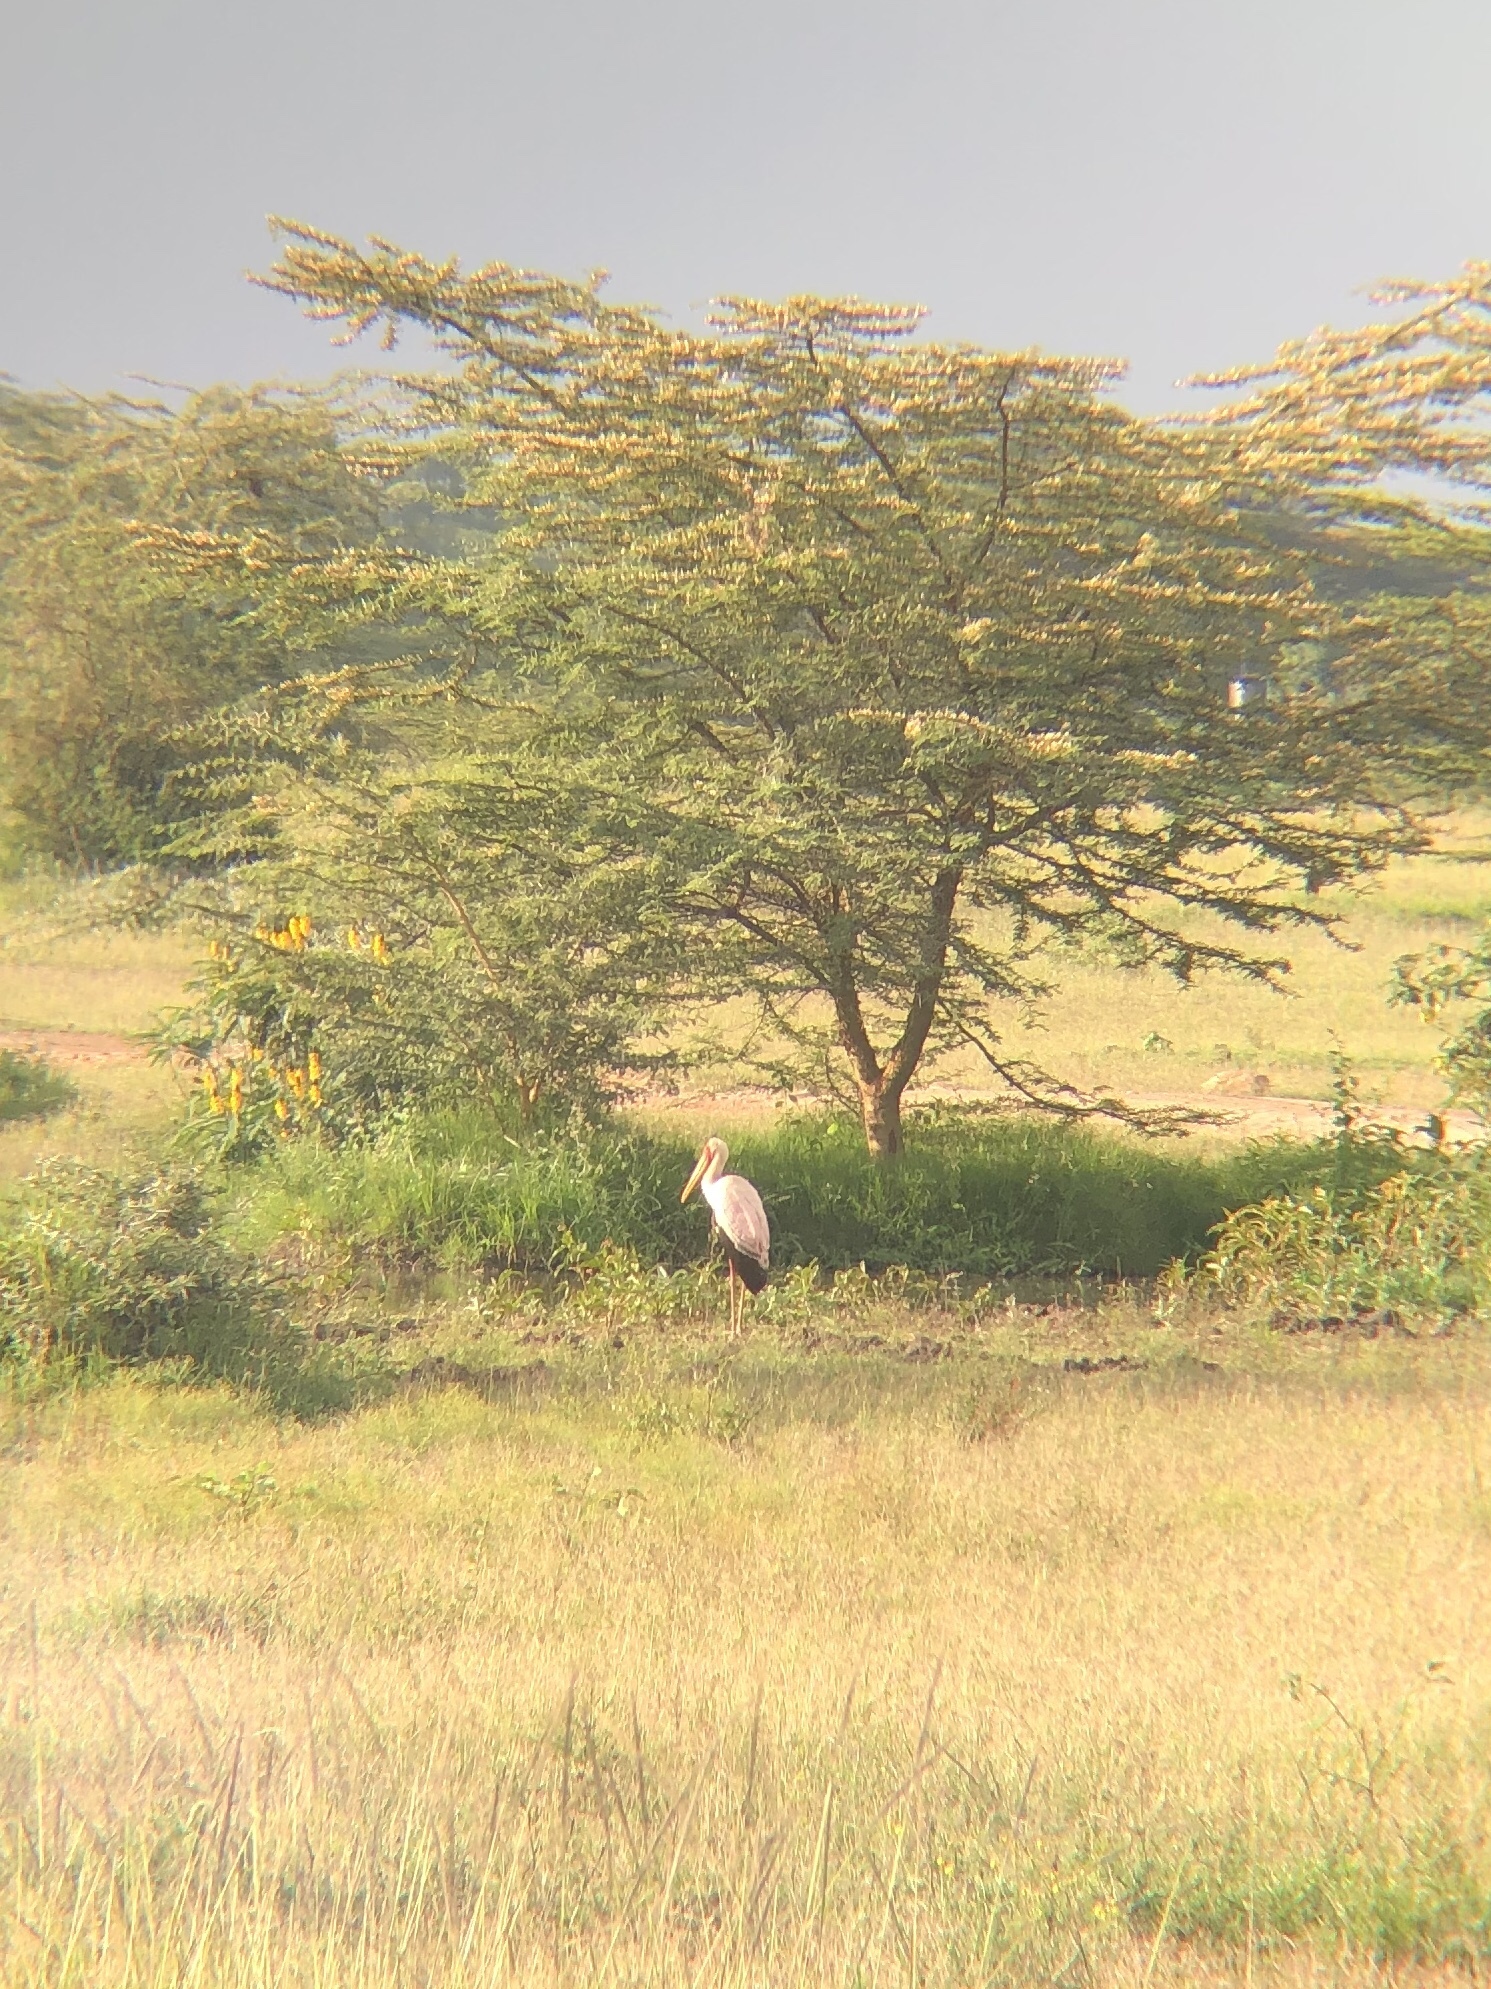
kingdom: Animalia
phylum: Chordata
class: Aves
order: Ciconiiformes
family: Ciconiidae
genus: Mycteria
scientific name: Mycteria ibis
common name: Yellow-billed stork
